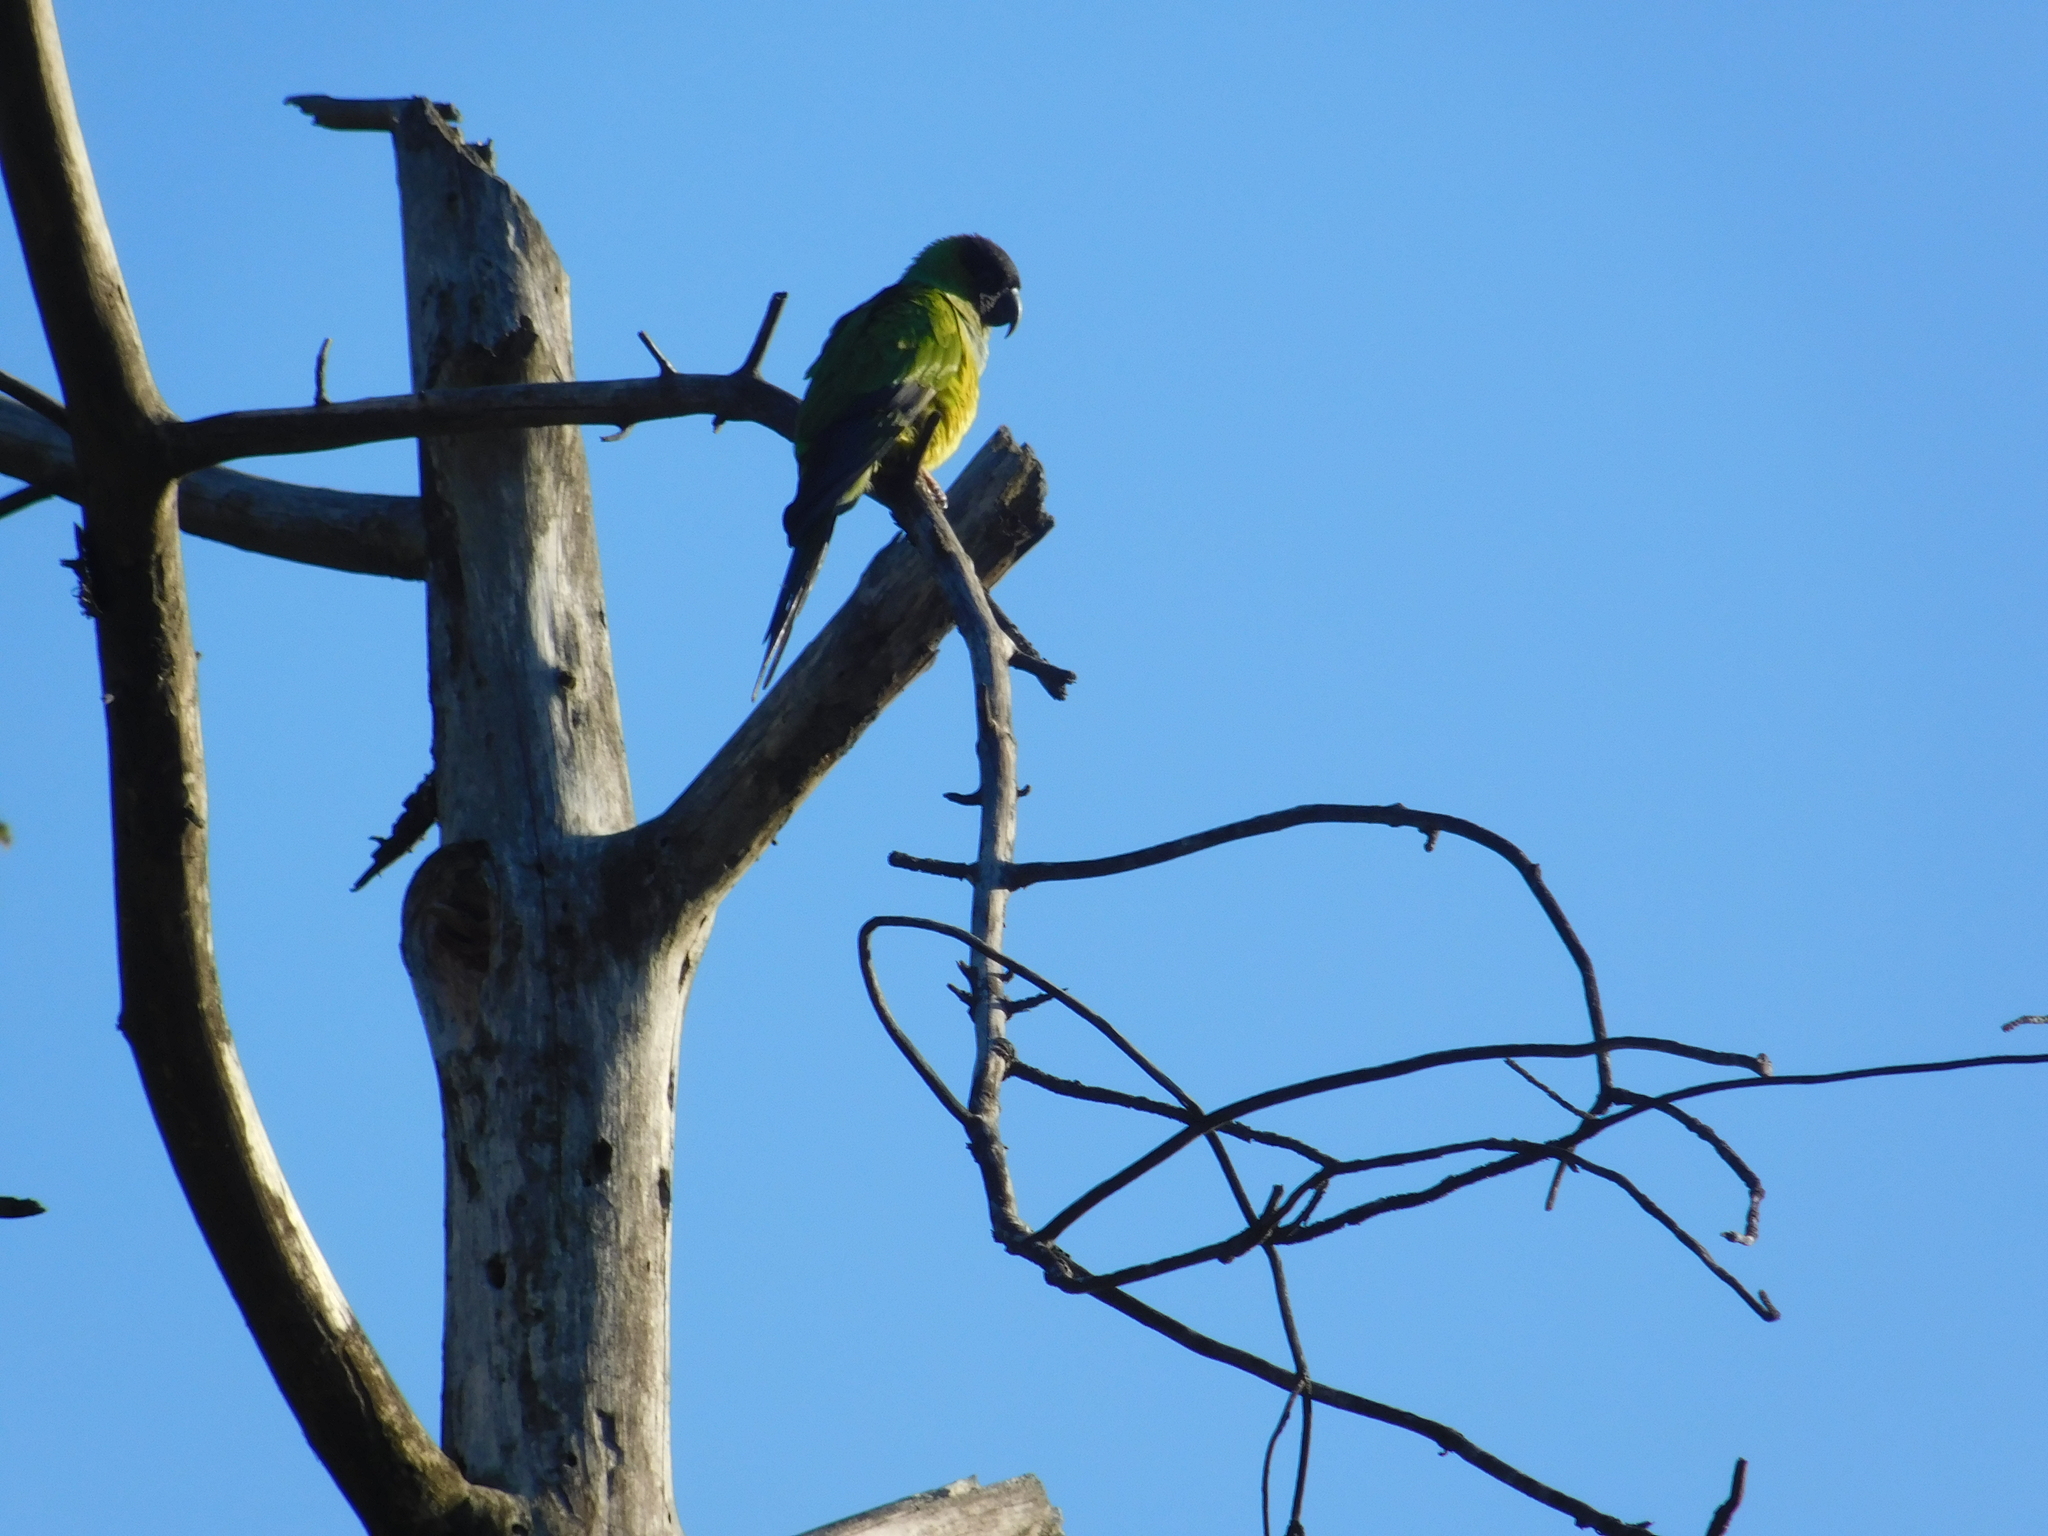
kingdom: Animalia
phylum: Chordata
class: Aves
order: Psittaciformes
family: Psittacidae
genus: Nandayus
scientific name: Nandayus nenday
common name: Nanday parakeet
